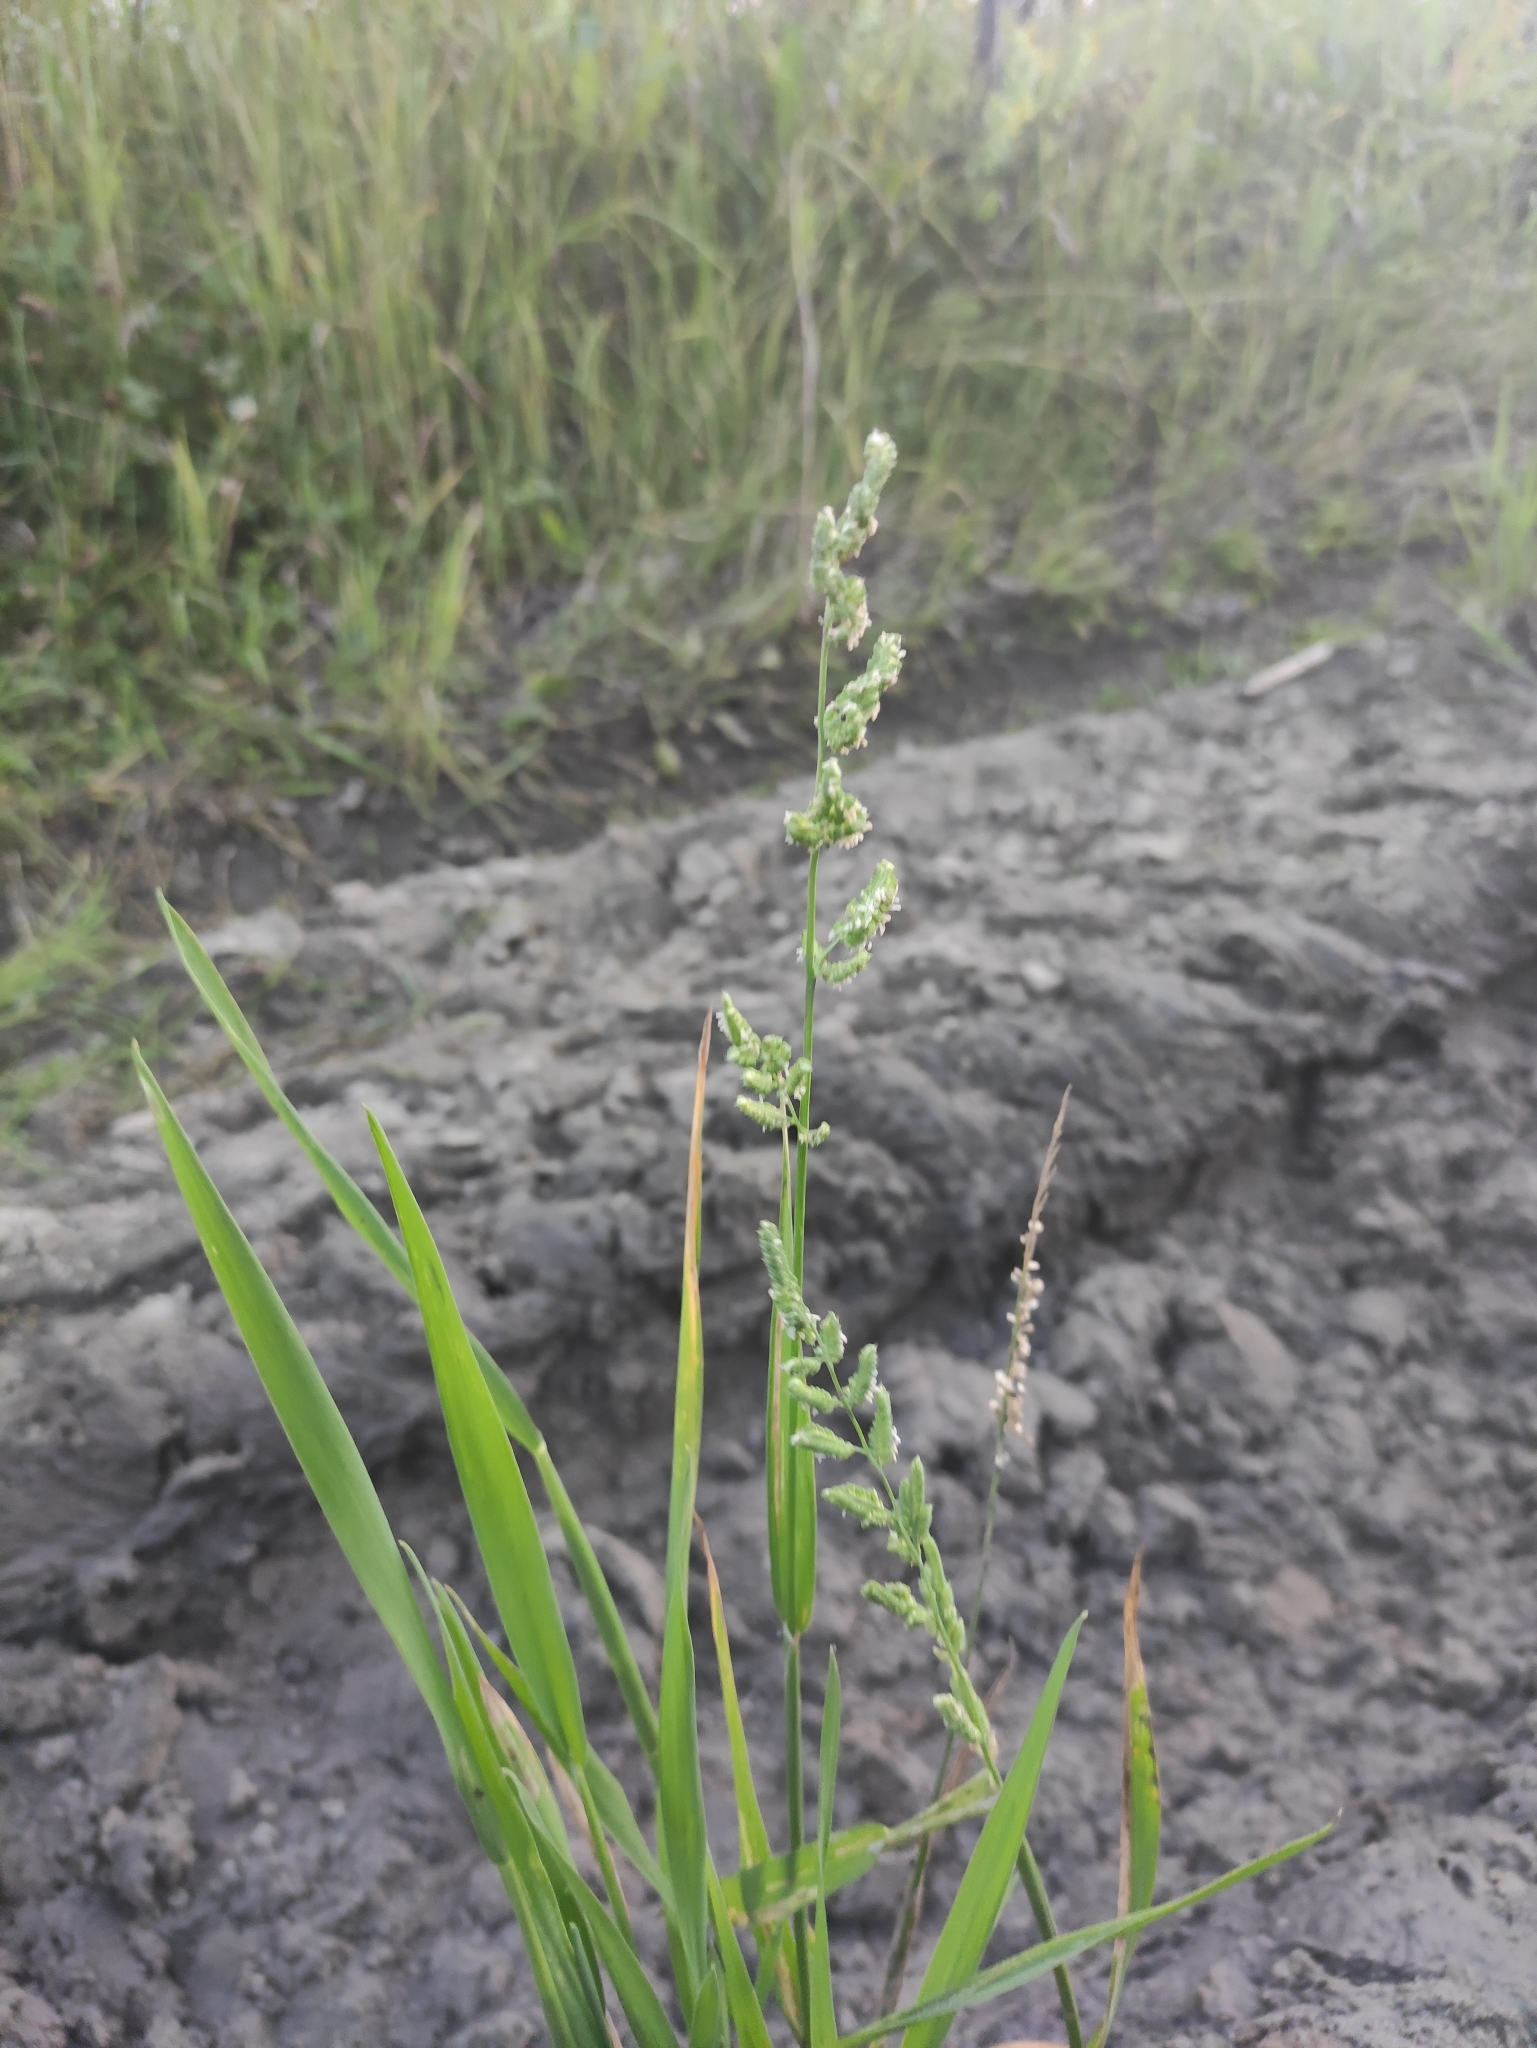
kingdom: Plantae
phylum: Tracheophyta
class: Liliopsida
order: Poales
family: Poaceae
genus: Beckmannia
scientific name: Beckmannia syzigachne
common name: American slough-grass
